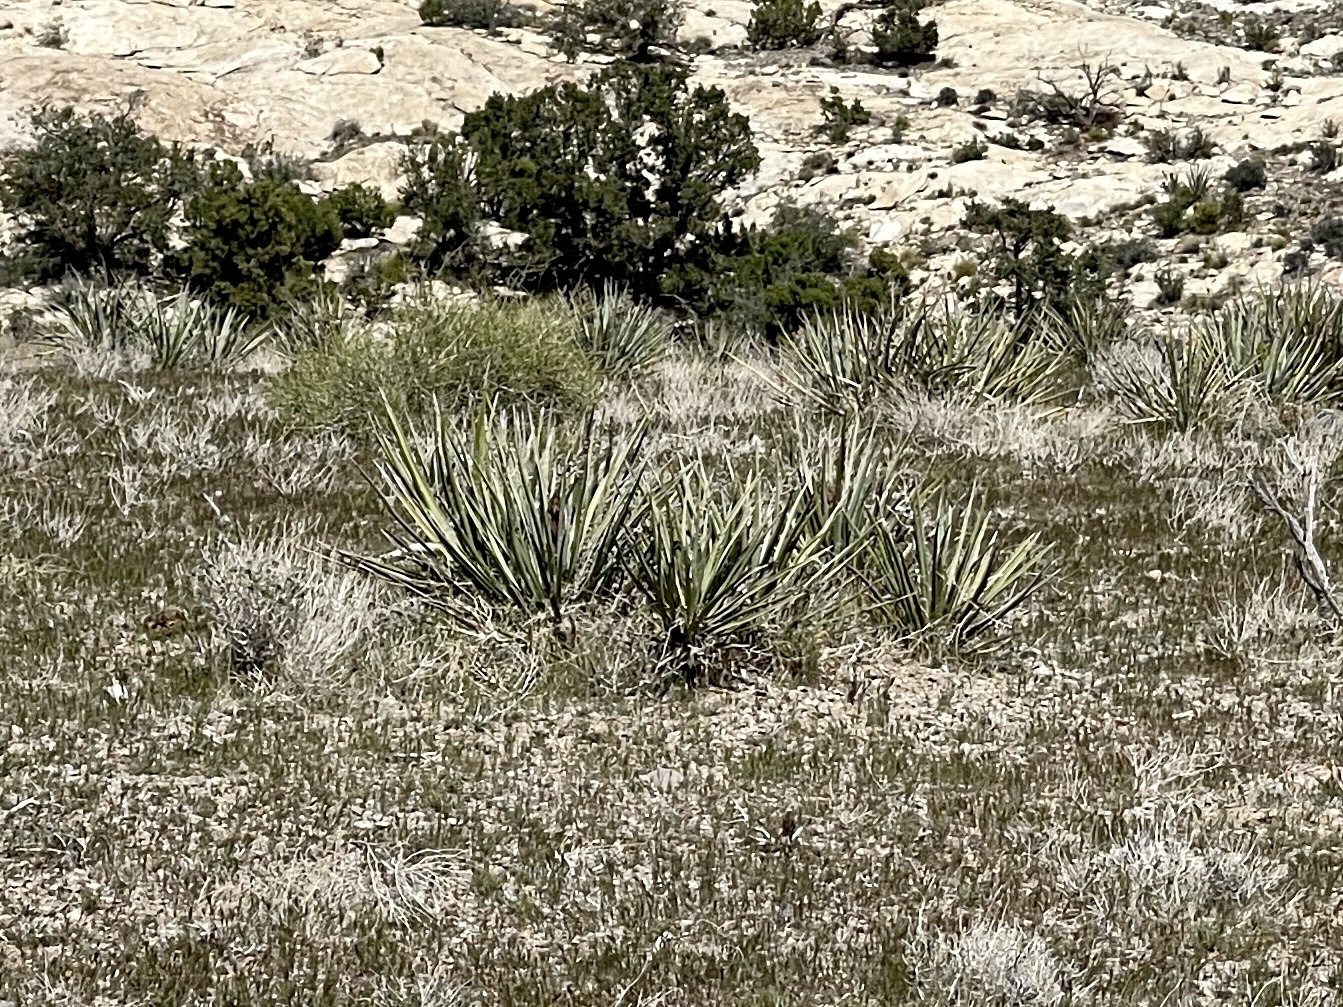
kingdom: Plantae
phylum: Tracheophyta
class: Liliopsida
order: Asparagales
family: Asparagaceae
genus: Yucca
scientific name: Yucca baccata
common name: Banana yucca
